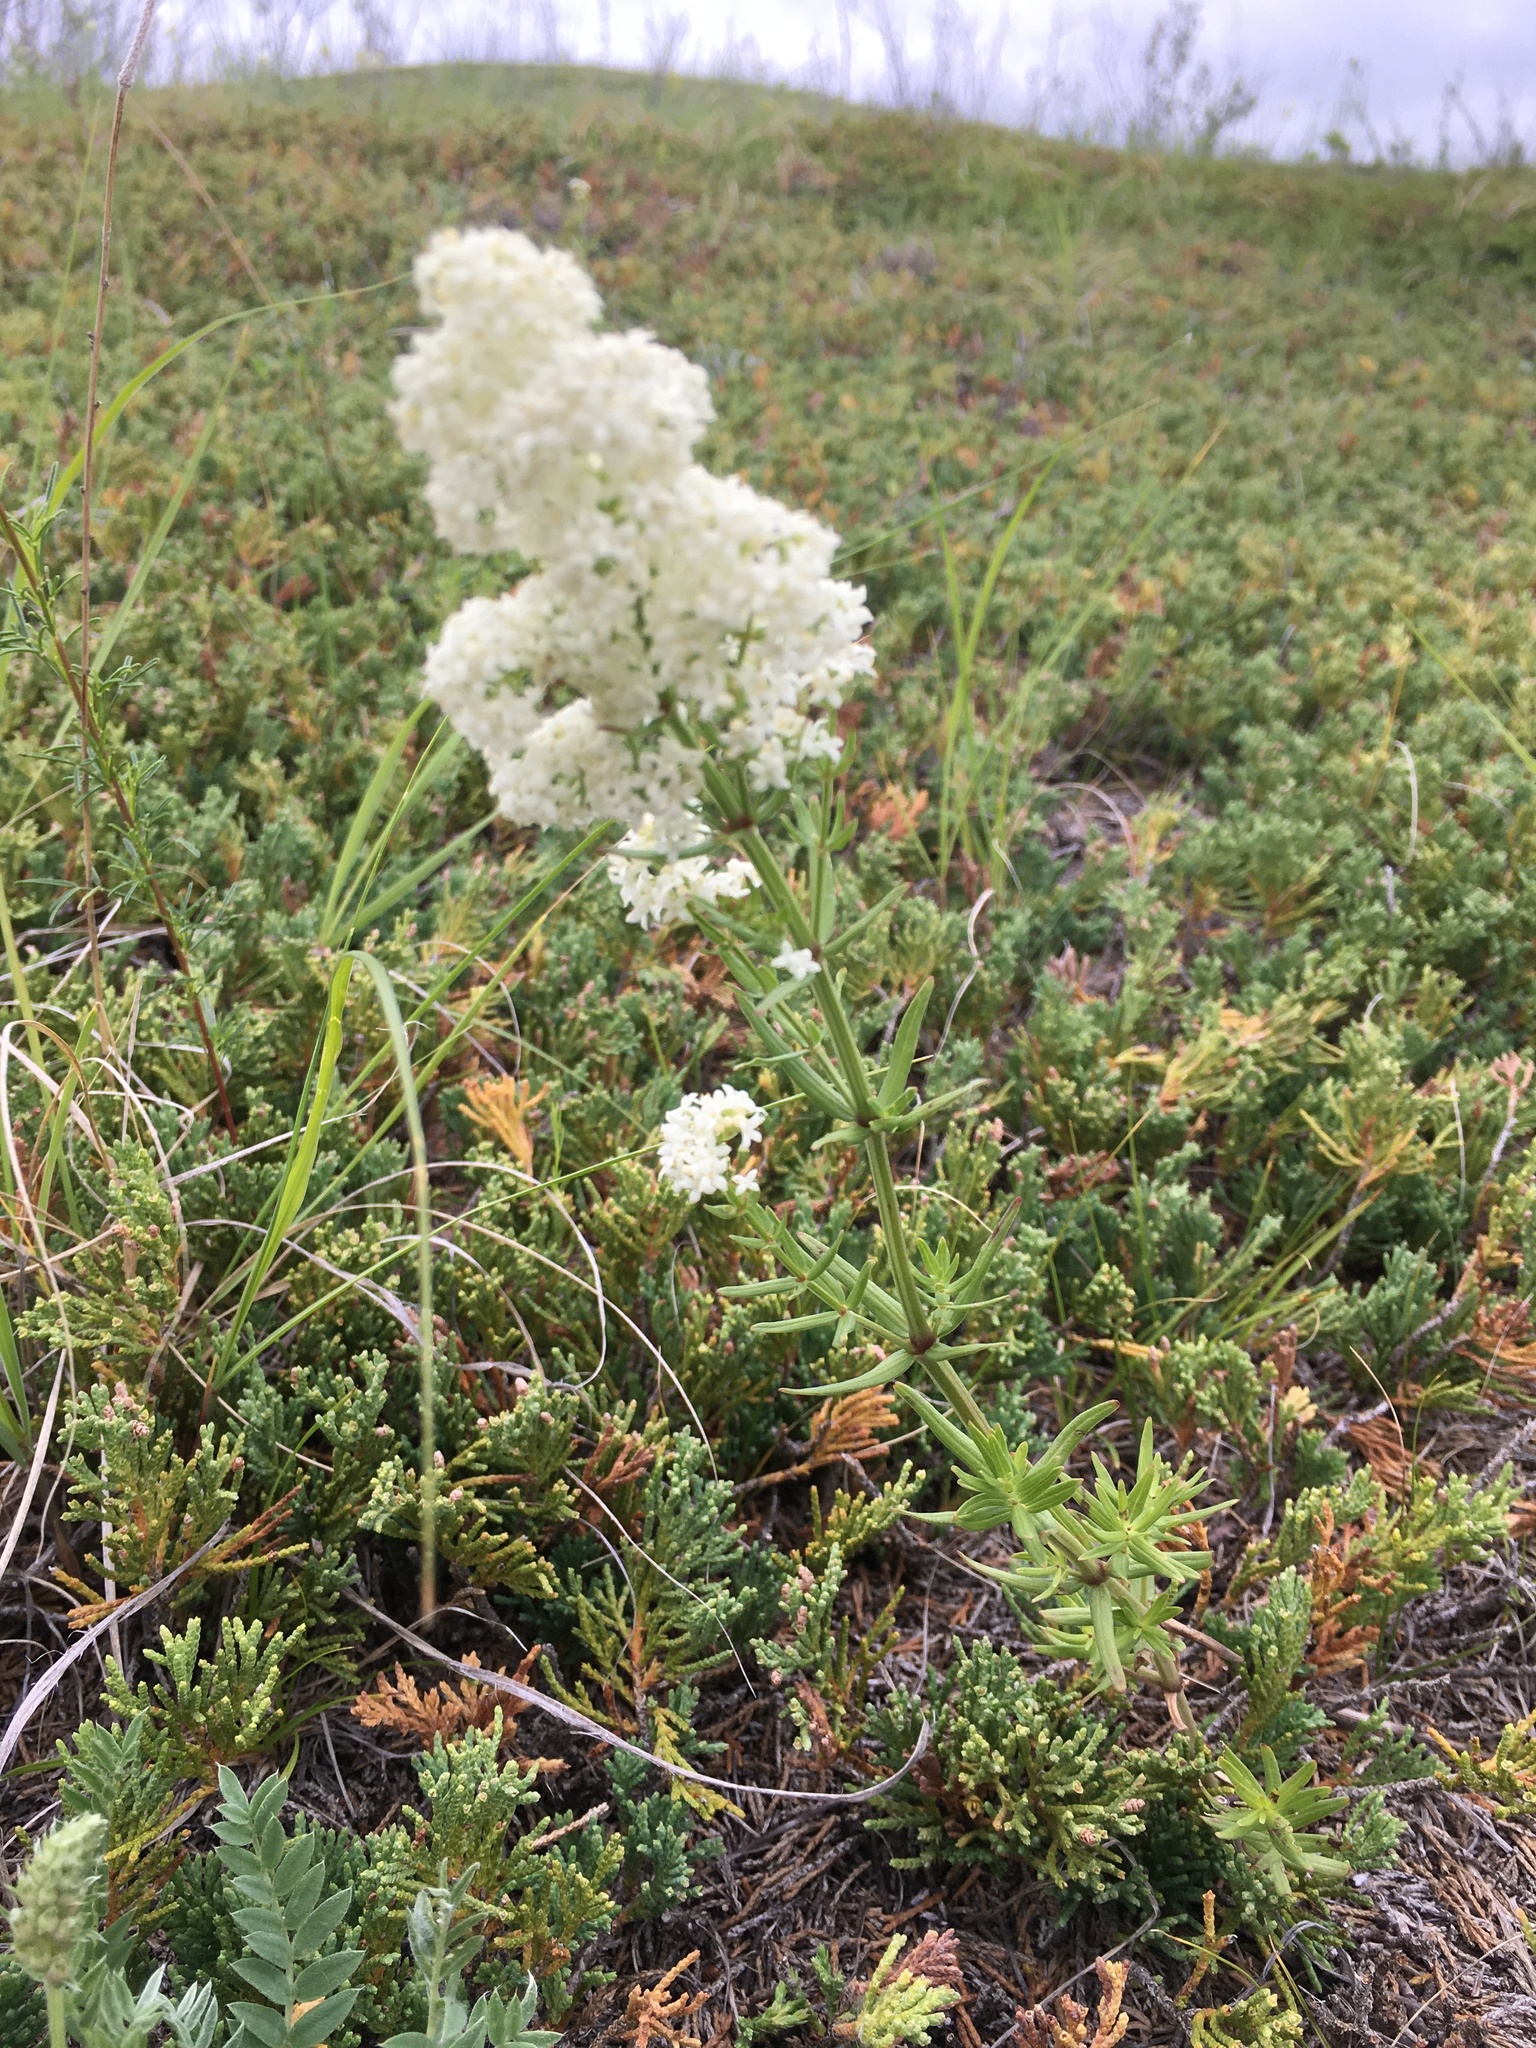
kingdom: Plantae
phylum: Tracheophyta
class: Magnoliopsida
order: Gentianales
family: Rubiaceae
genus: Galium
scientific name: Galium boreale
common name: Northern bedstraw
